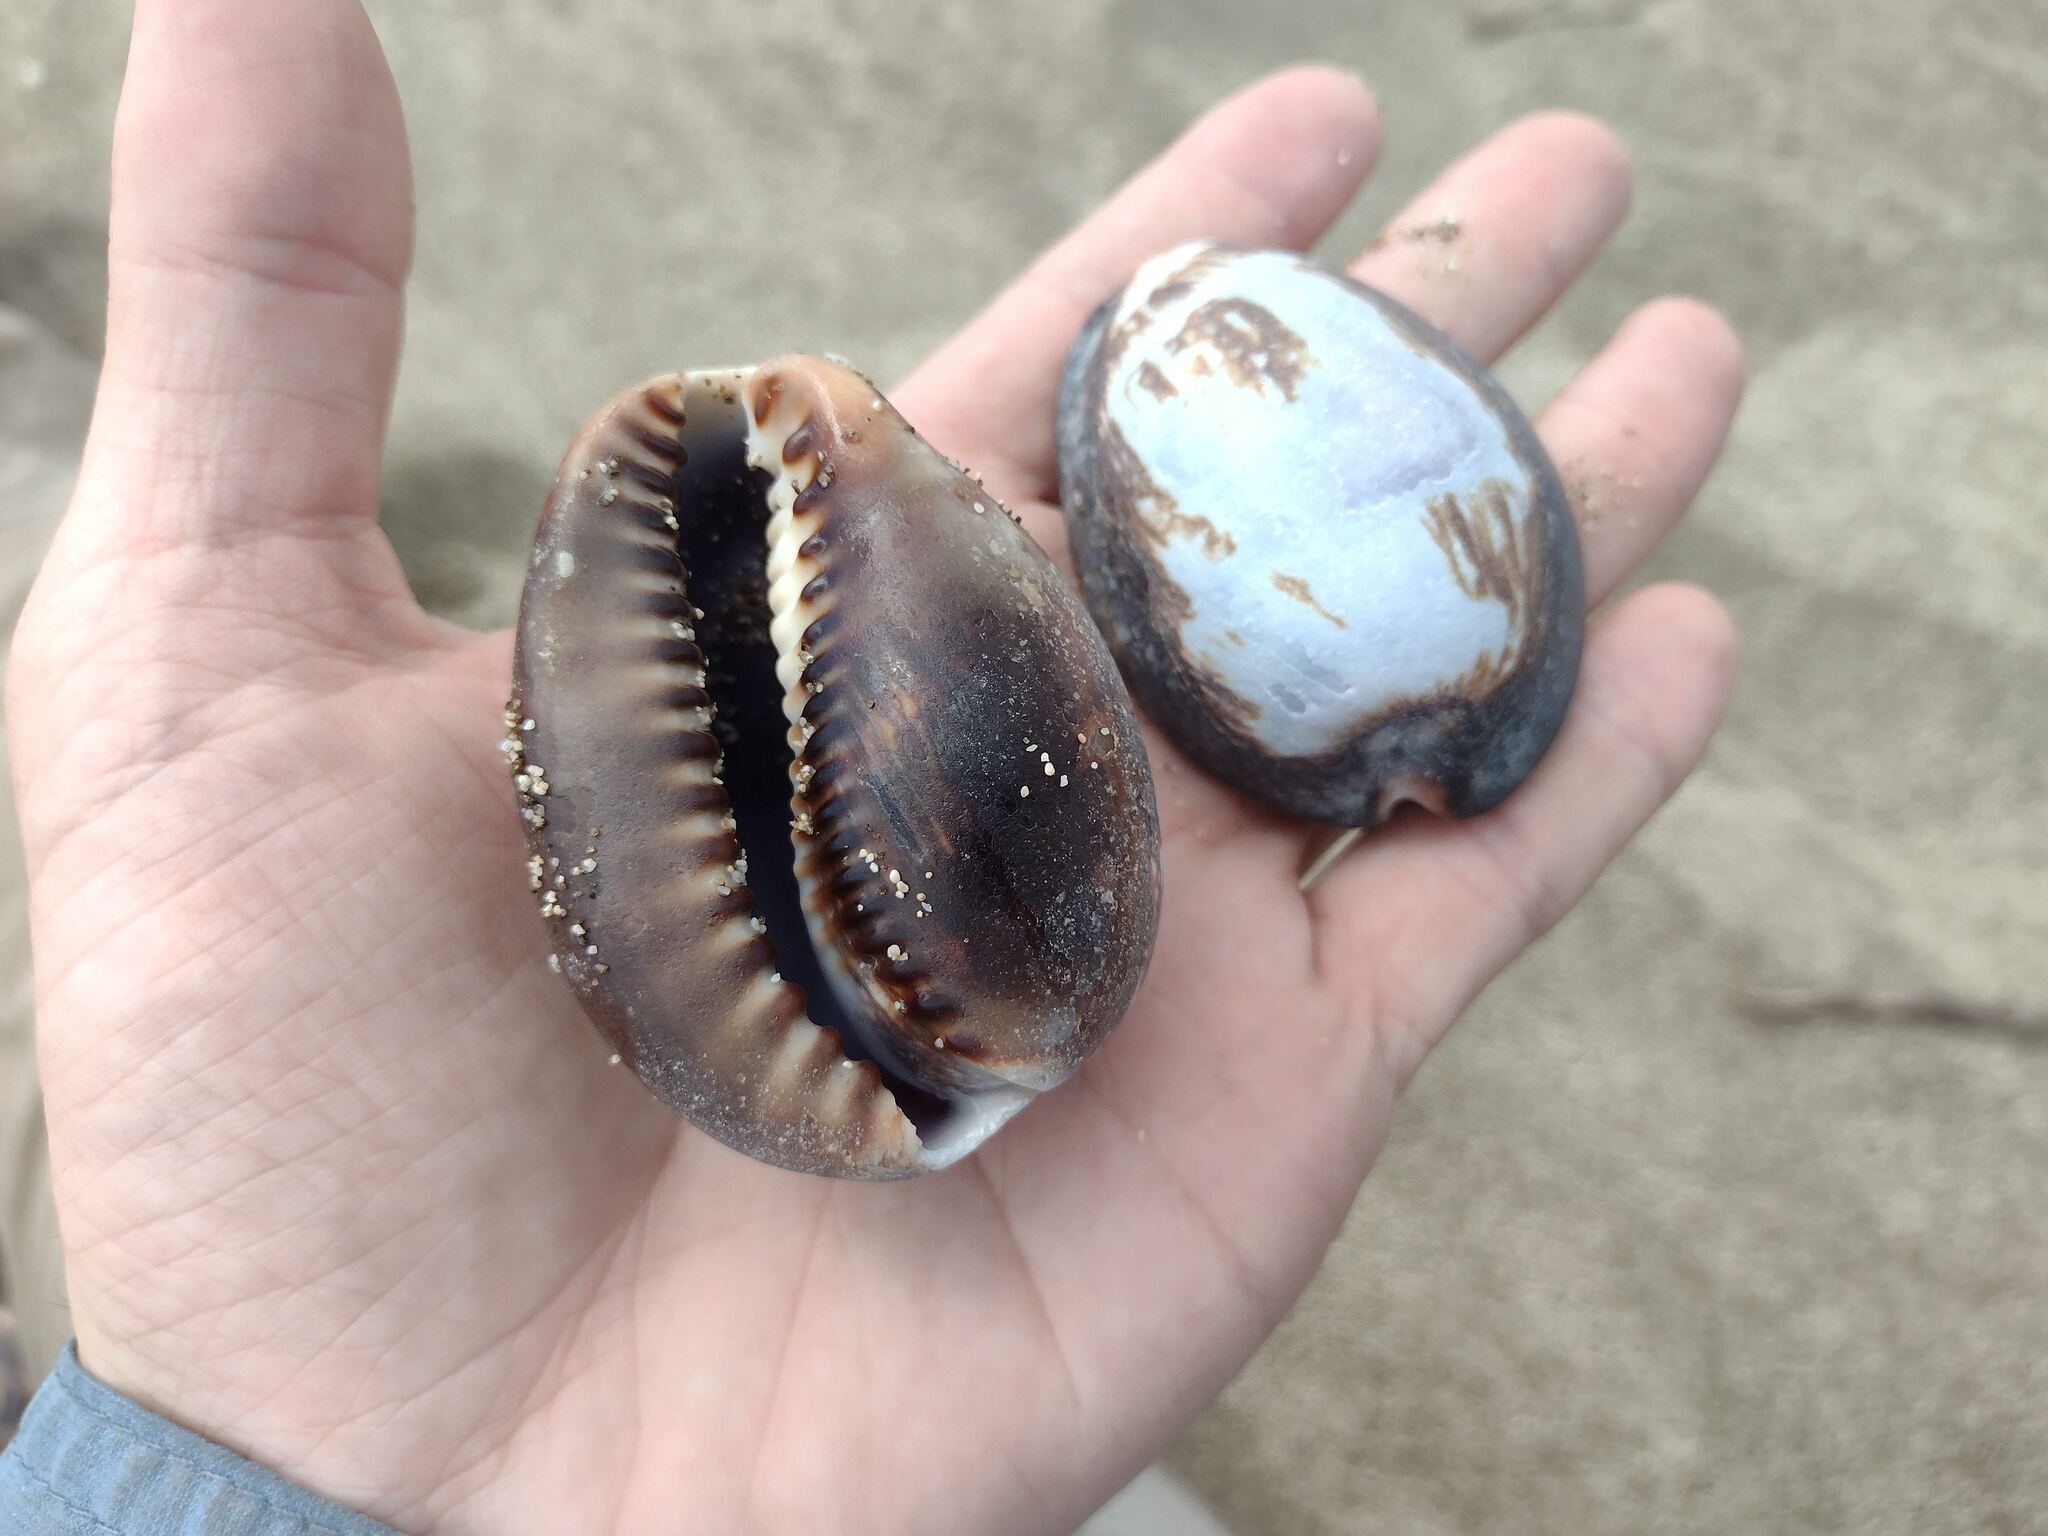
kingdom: Animalia
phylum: Mollusca
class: Gastropoda
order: Littorinimorpha
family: Cypraeidae
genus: Mauritia
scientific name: Mauritia mauritiana
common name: Hump-backed cowrie
